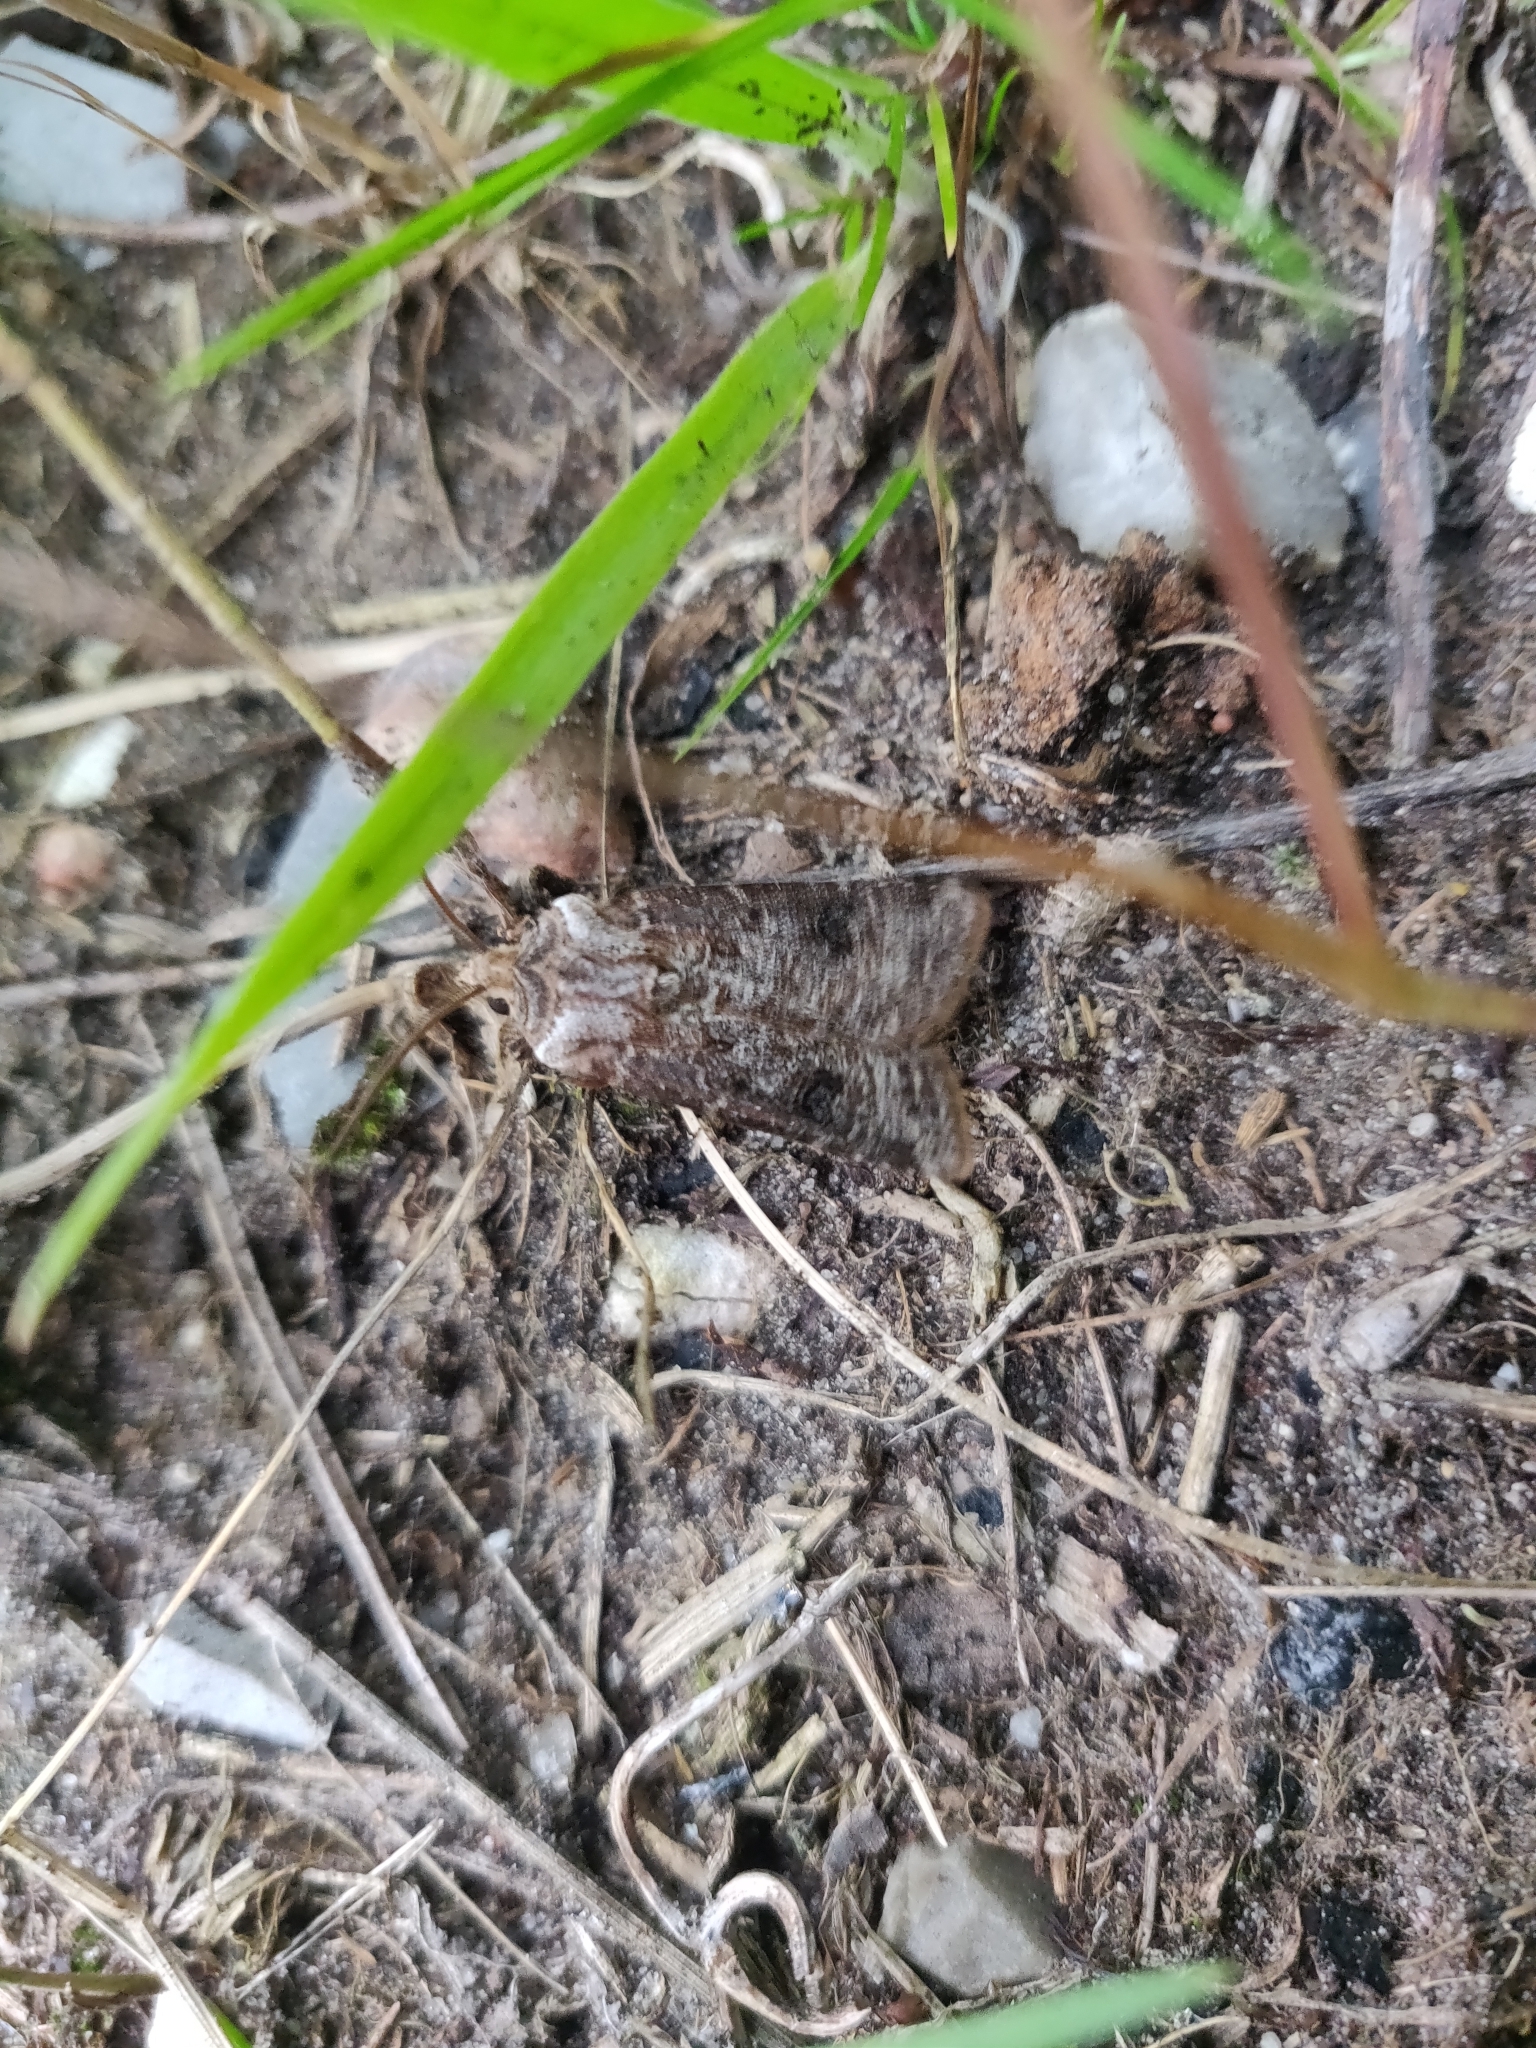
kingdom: Animalia
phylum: Arthropoda
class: Insecta
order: Lepidoptera
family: Noctuidae
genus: Agrotis
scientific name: Agrotis clavis
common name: Heart and club
